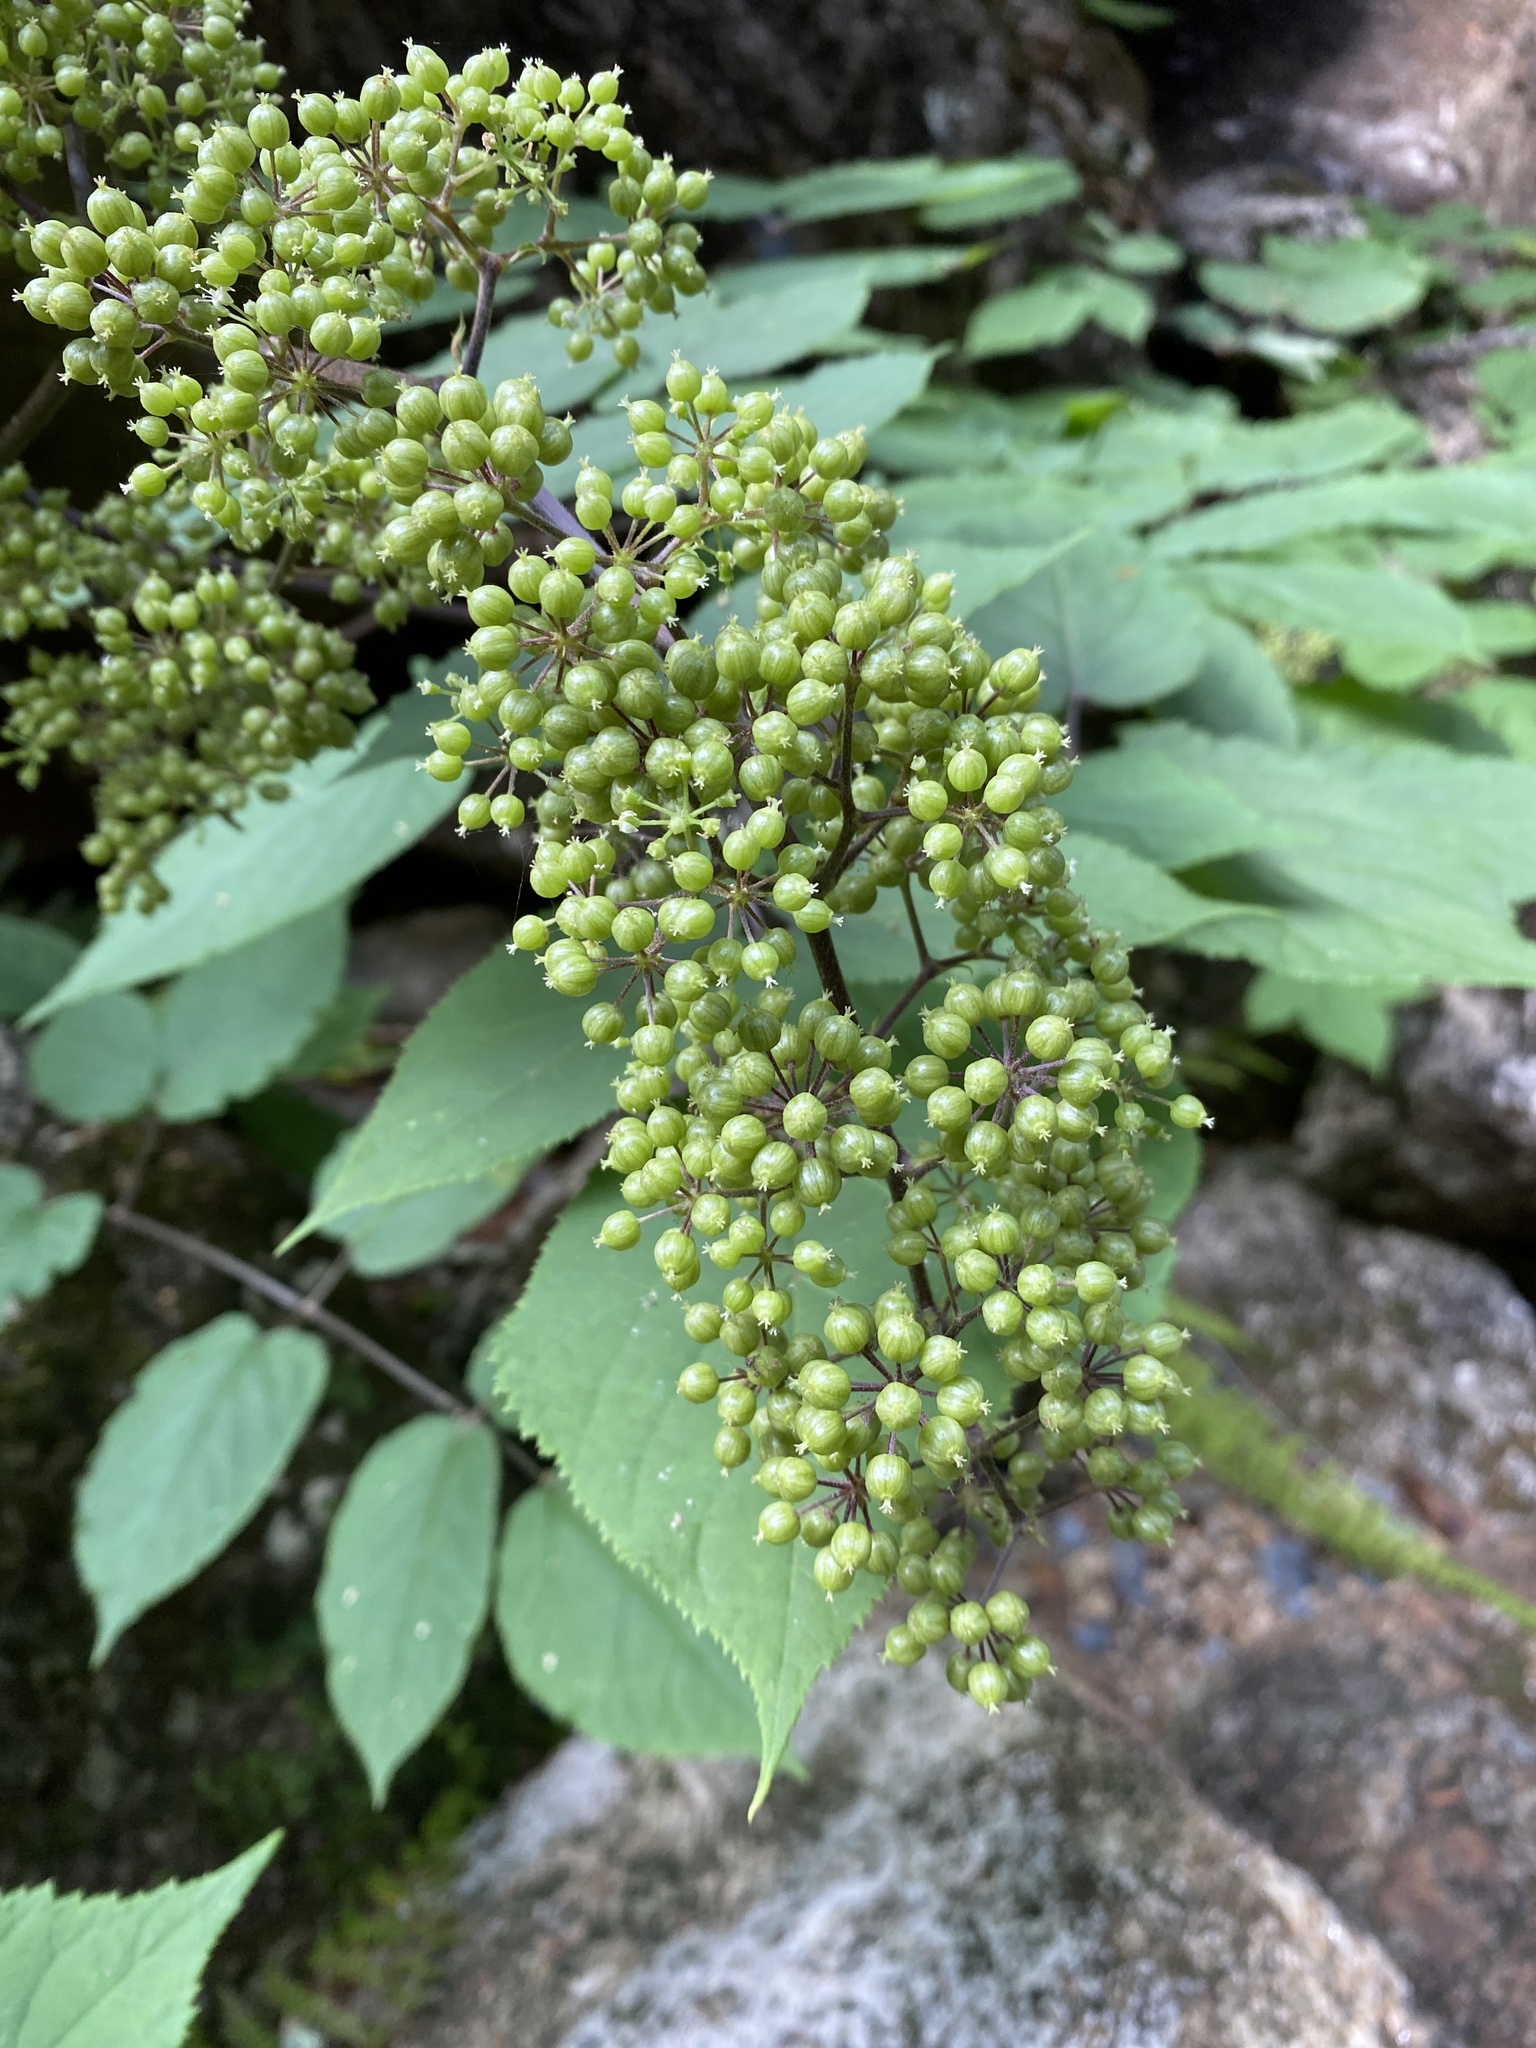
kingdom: Plantae
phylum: Tracheophyta
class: Magnoliopsida
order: Apiales
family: Araliaceae
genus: Aralia
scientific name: Aralia racemosa
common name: American-spikenard
